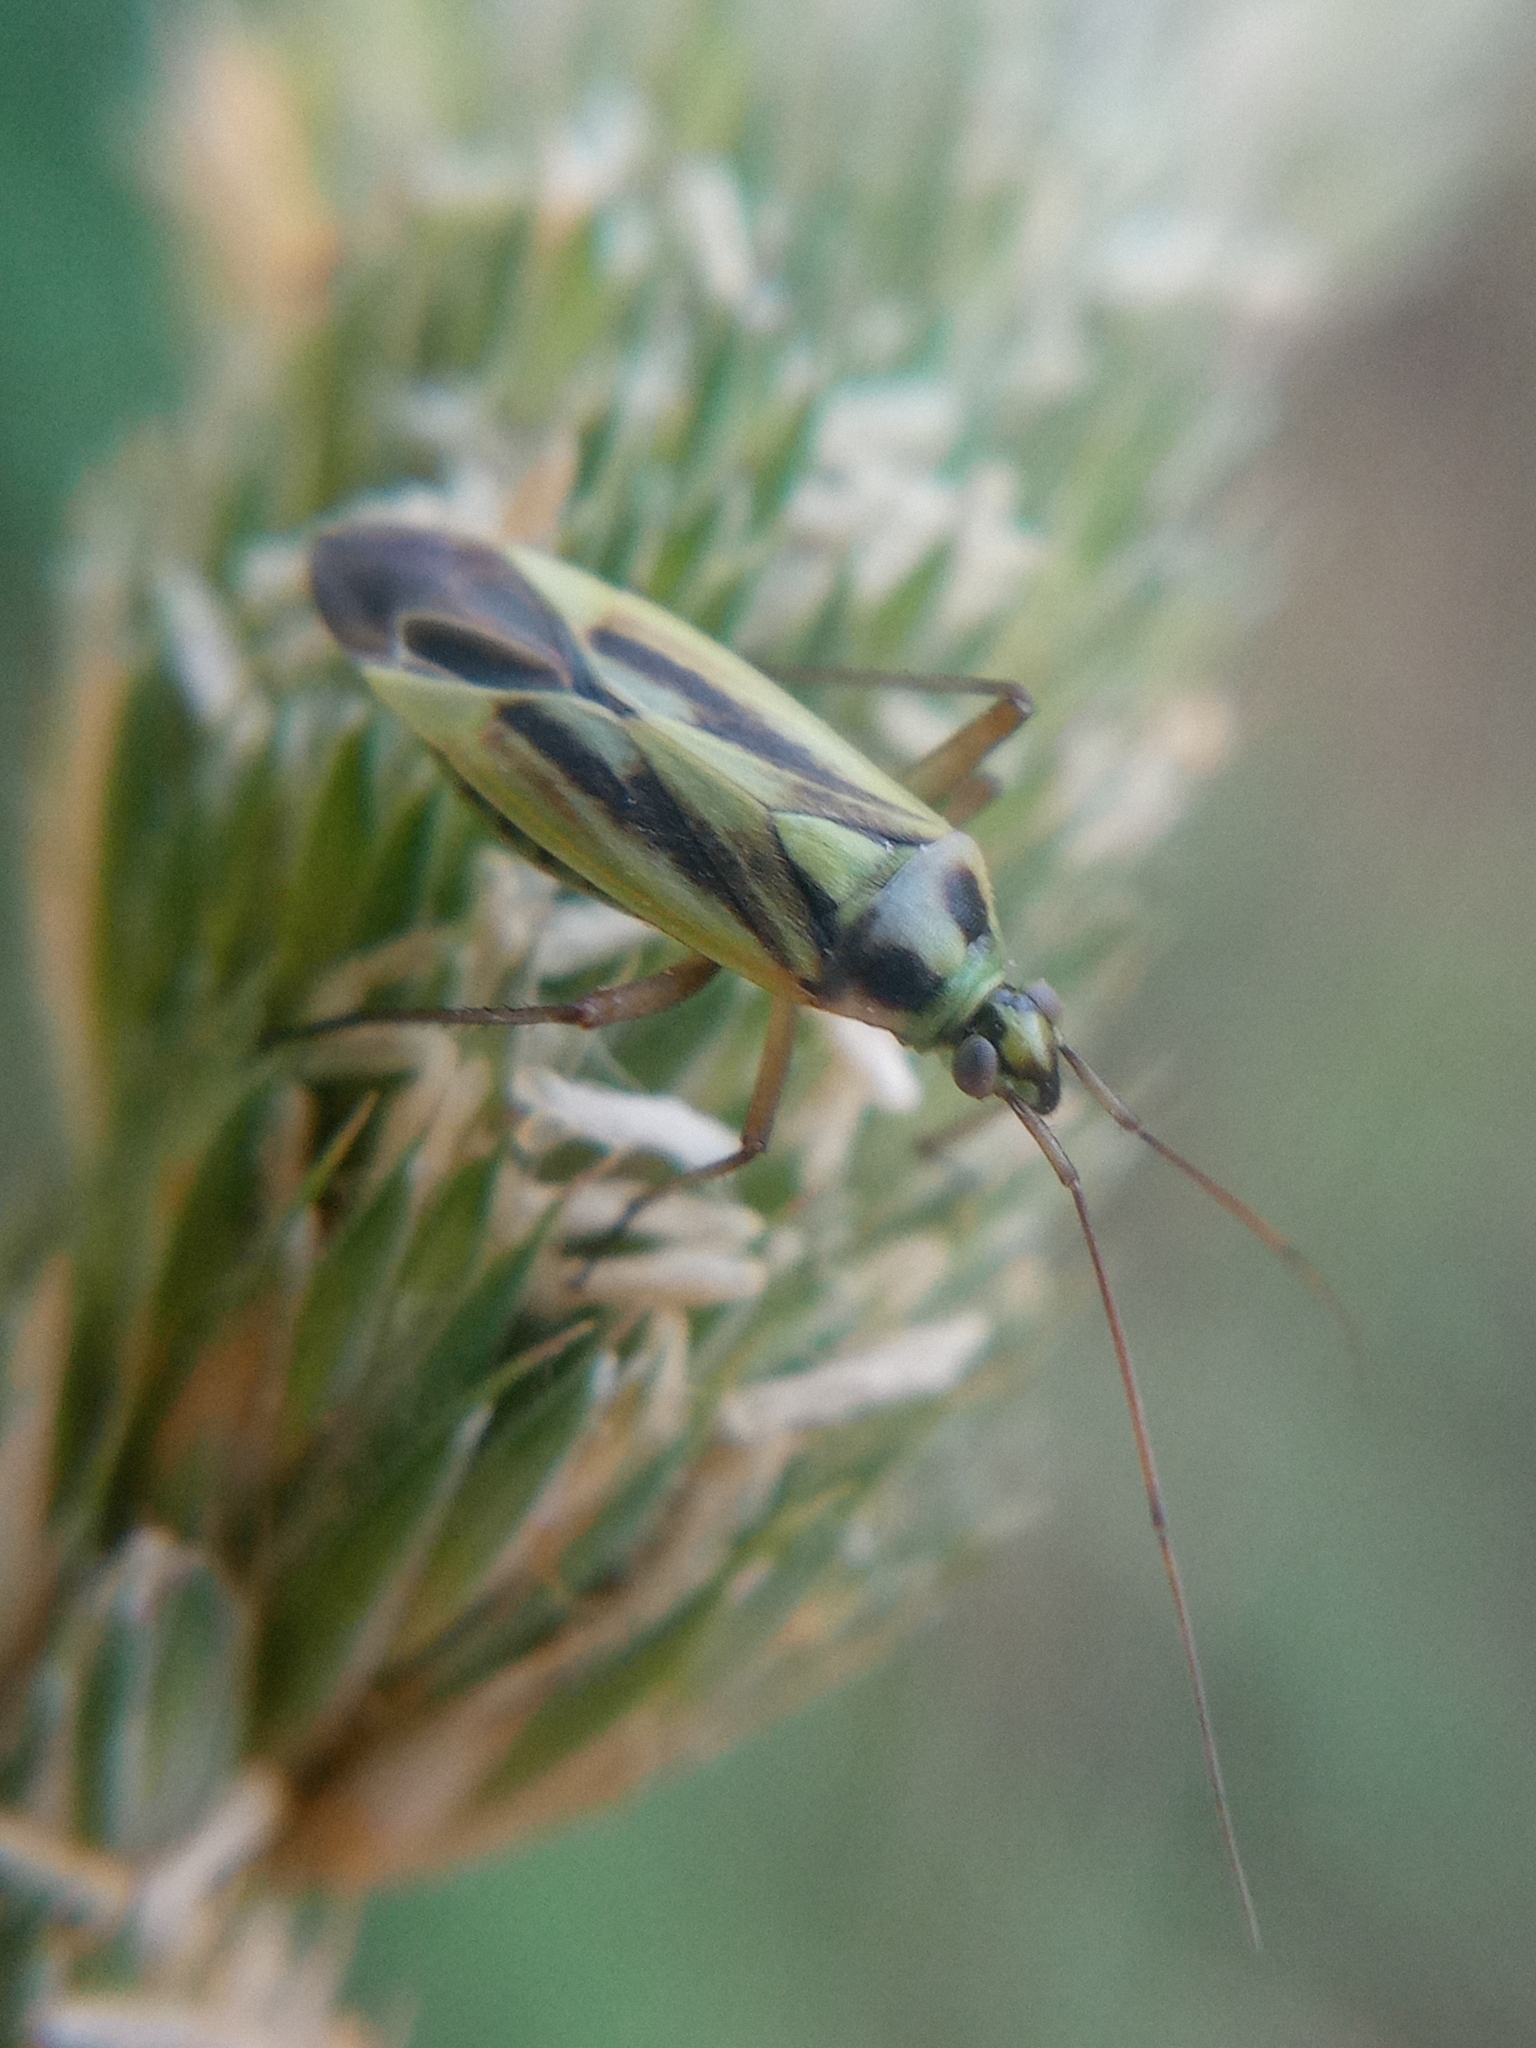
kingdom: Animalia
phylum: Arthropoda
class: Insecta
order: Hemiptera
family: Miridae
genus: Stenotus
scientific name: Stenotus binotatus
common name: Plant bug
